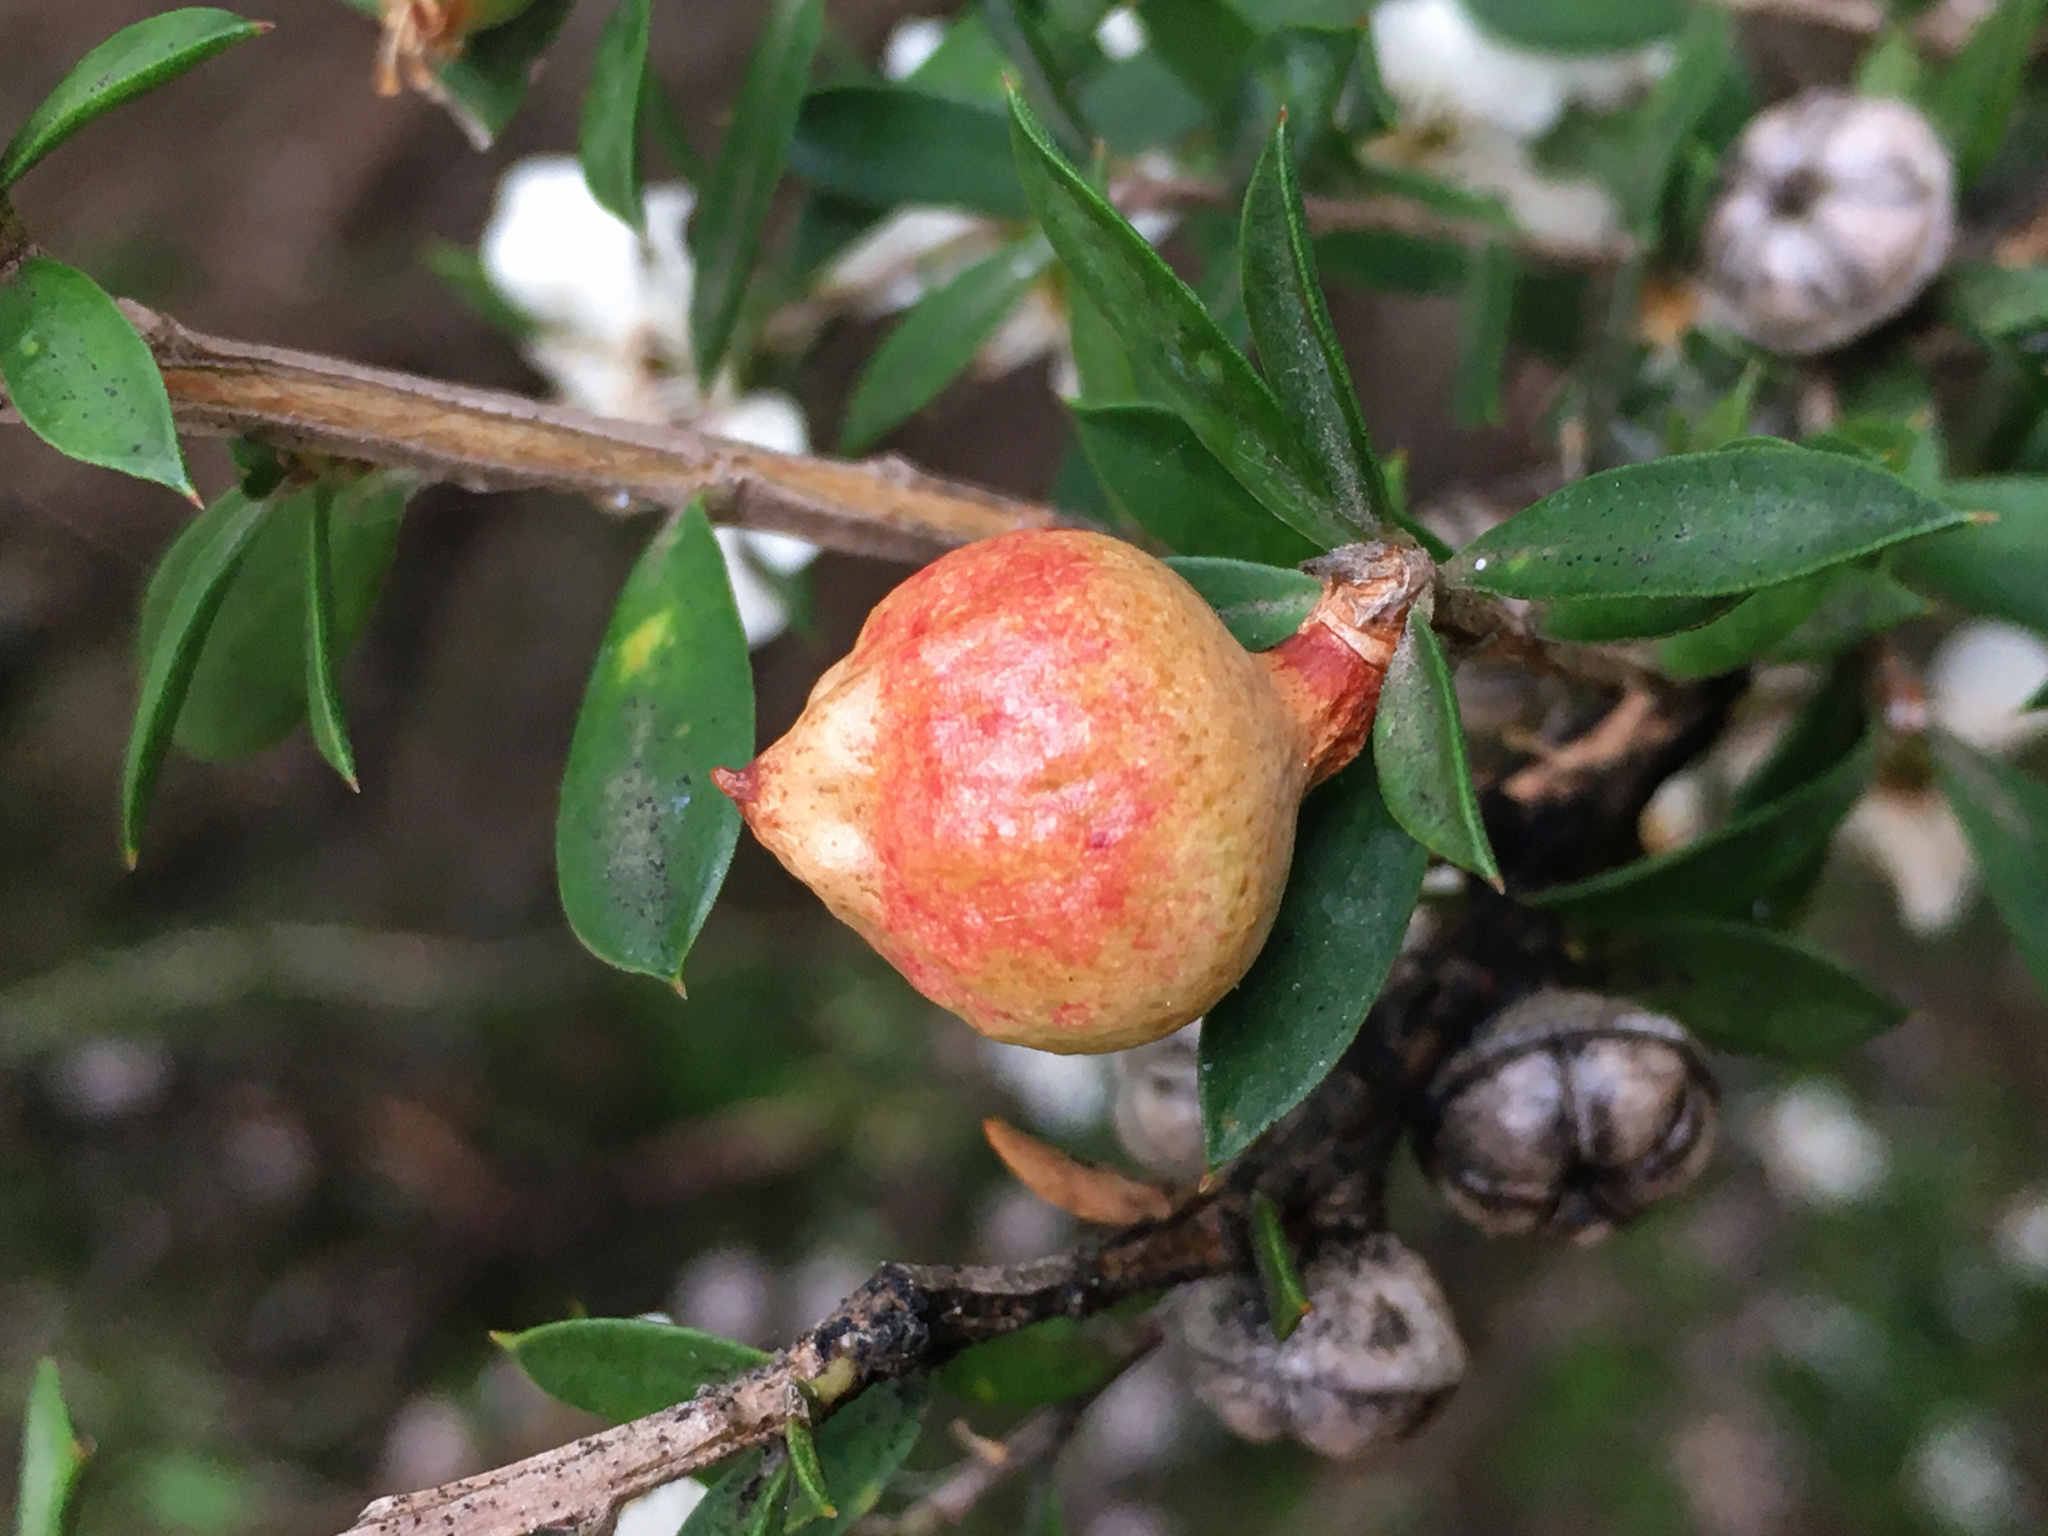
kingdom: Animalia
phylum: Arthropoda
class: Insecta
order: Hemiptera
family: Asterolecaniidae
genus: Eremococcus
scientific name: Eremococcus
